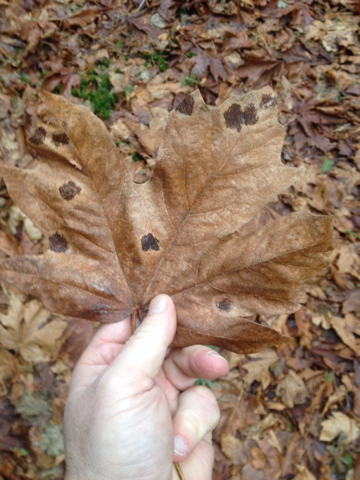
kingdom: Plantae
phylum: Tracheophyta
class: Magnoliopsida
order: Sapindales
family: Sapindaceae
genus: Acer
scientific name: Acer macrophyllum
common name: Oregon maple
